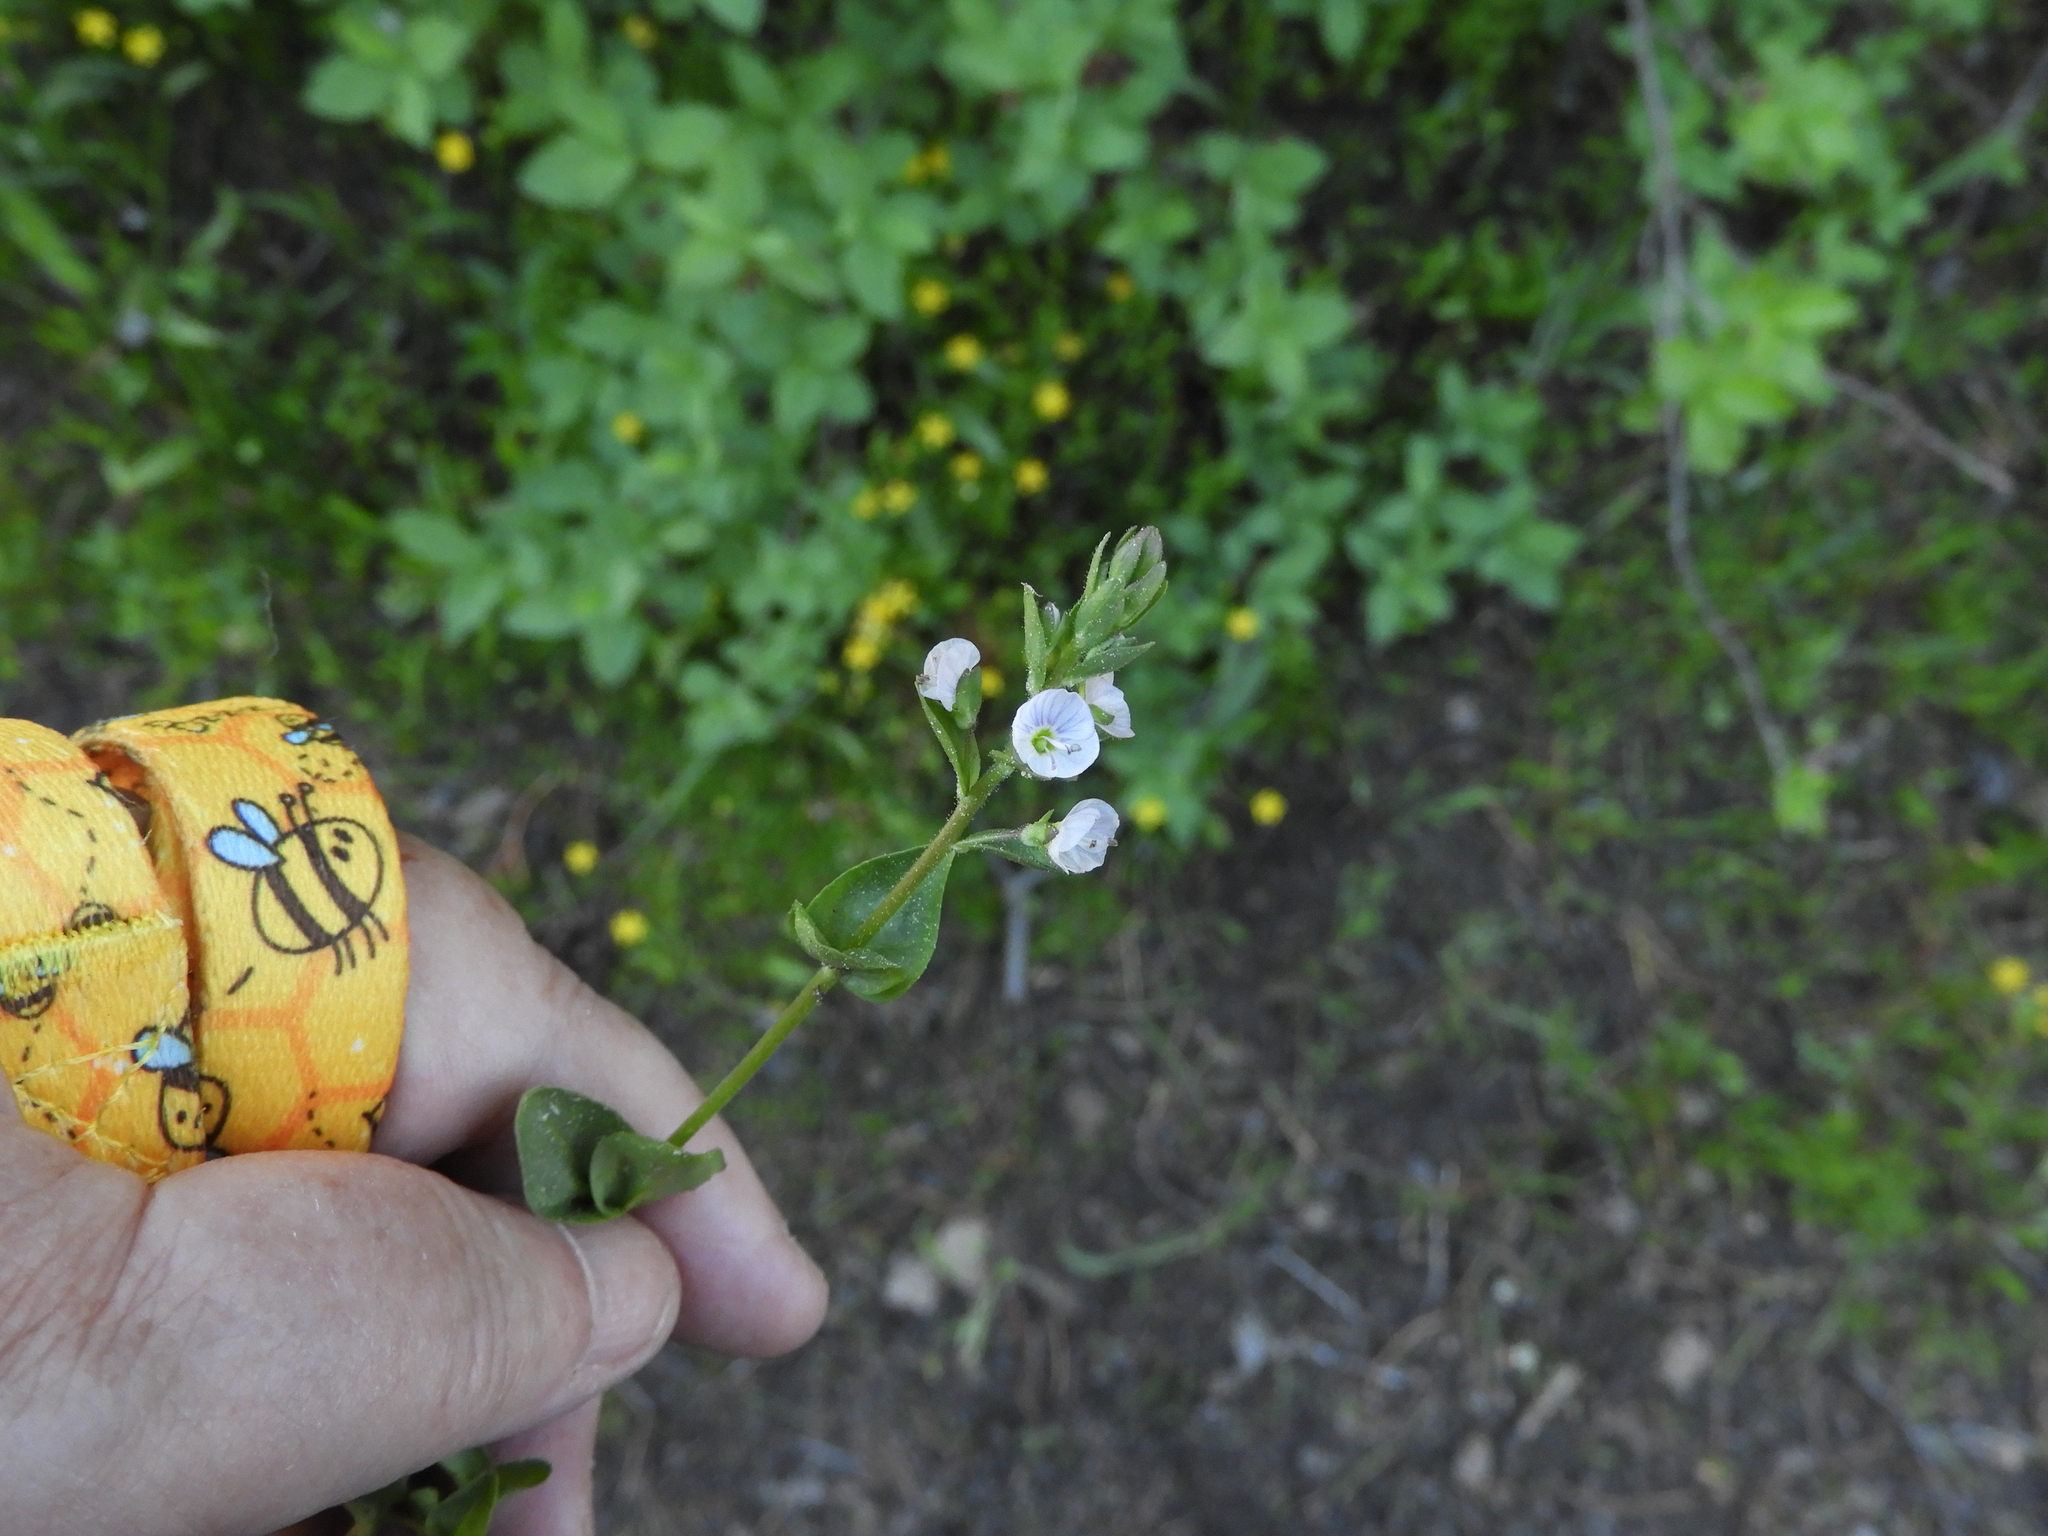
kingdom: Plantae
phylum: Tracheophyta
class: Magnoliopsida
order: Lamiales
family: Plantaginaceae
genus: Veronica
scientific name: Veronica serpyllifolia
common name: Thyme-leaved speedwell
